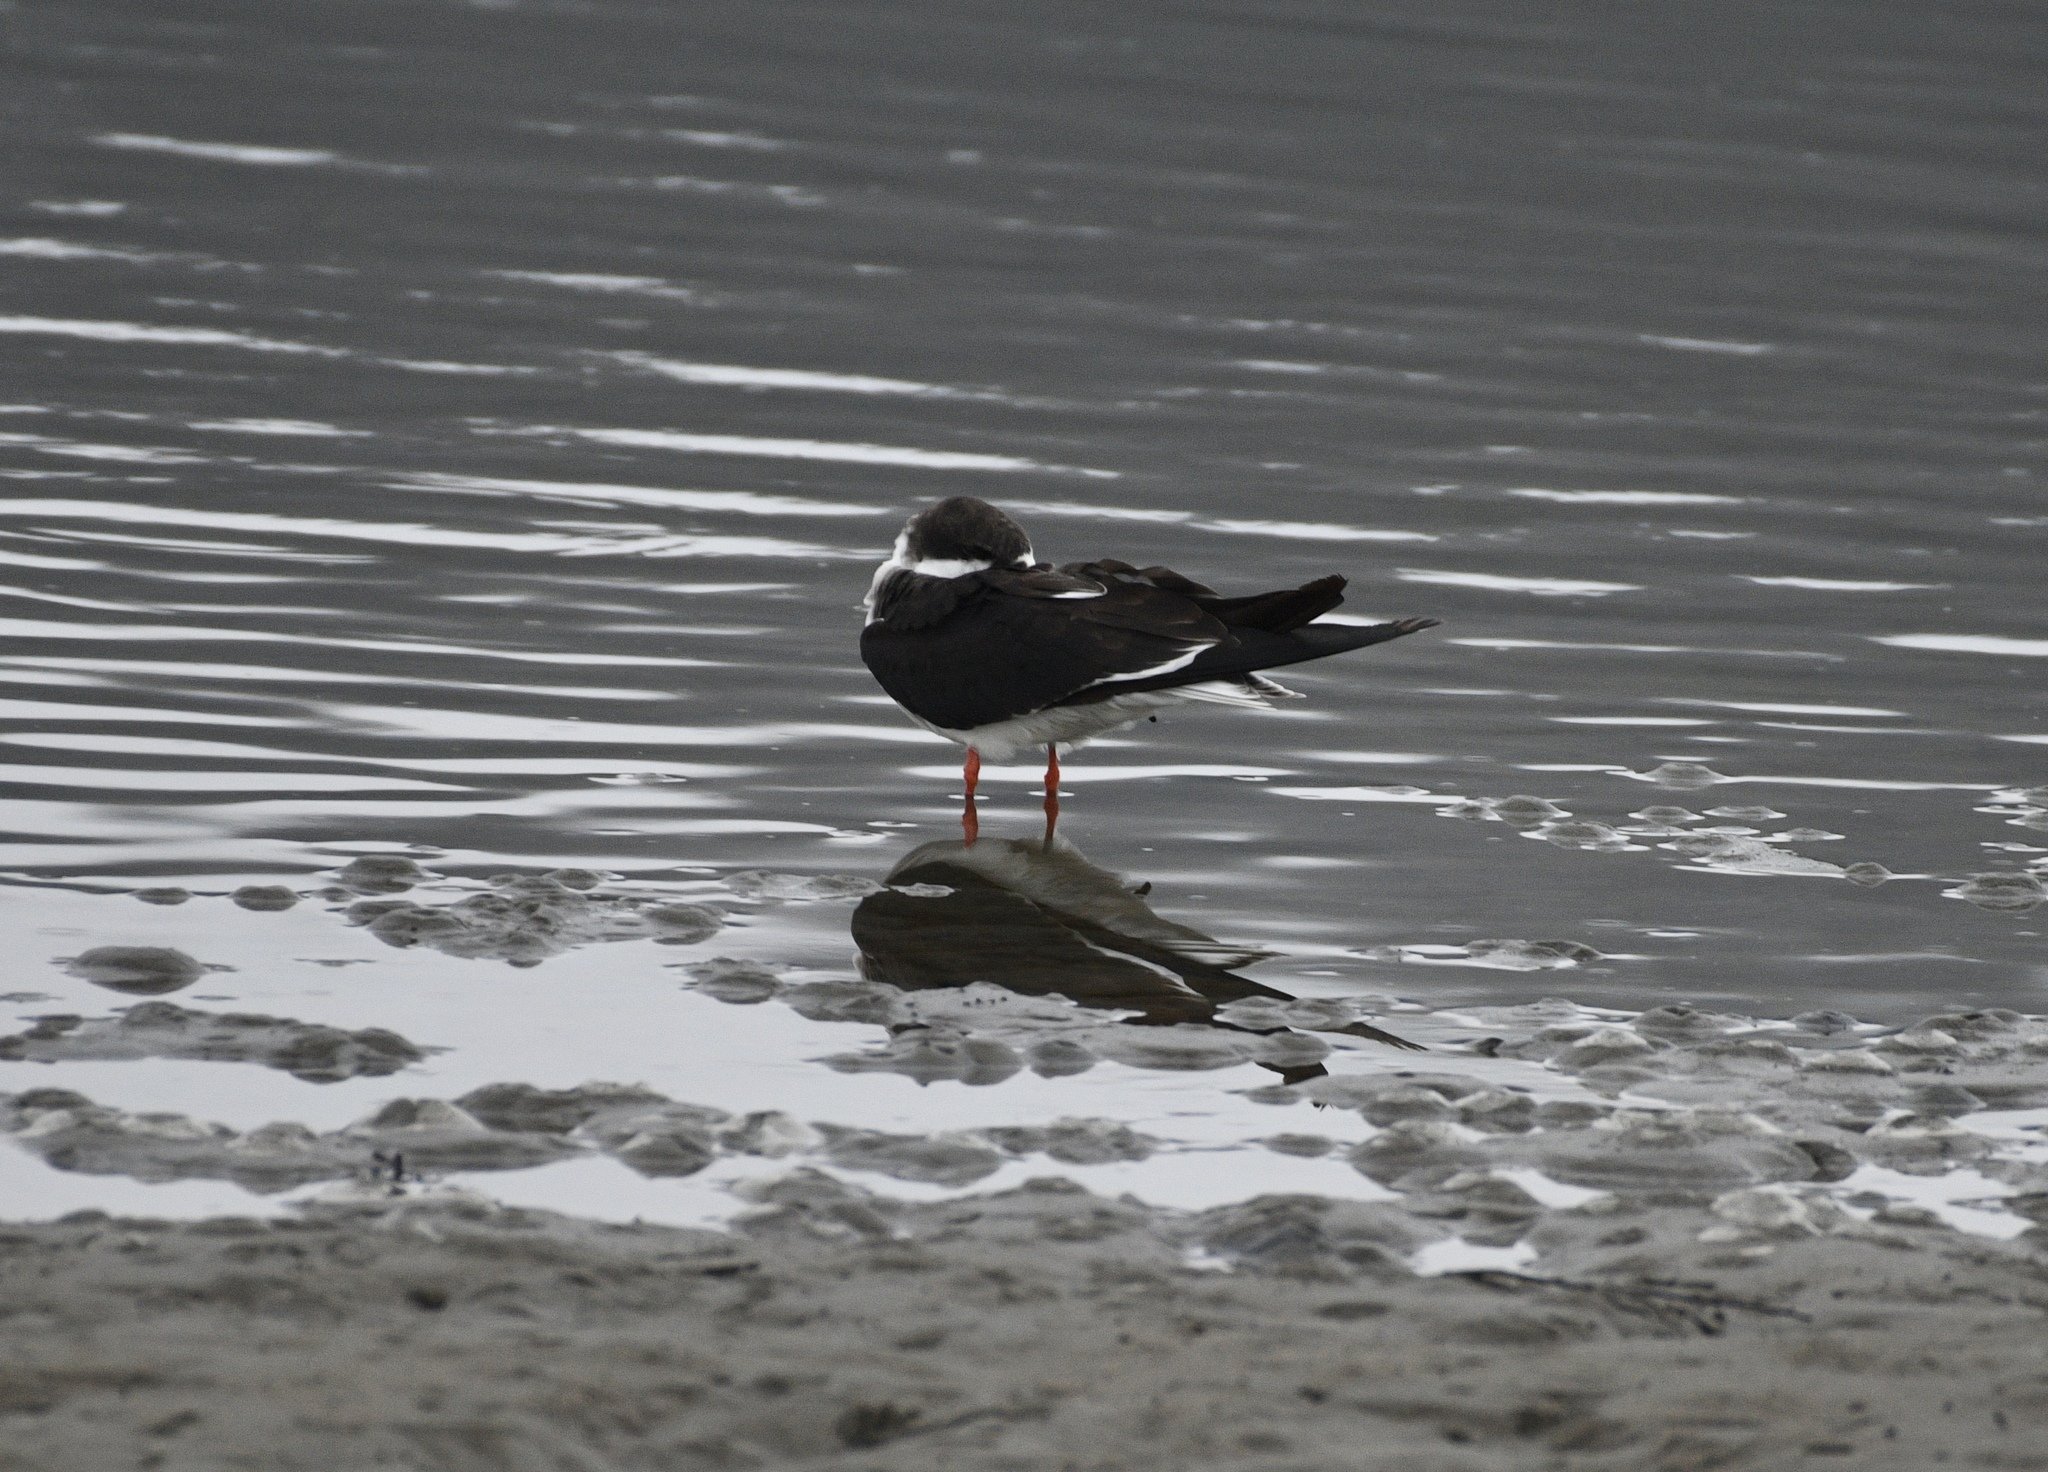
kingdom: Animalia
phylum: Chordata
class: Aves
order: Charadriiformes
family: Laridae
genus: Rynchops
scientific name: Rynchops niger
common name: Black skimmer
